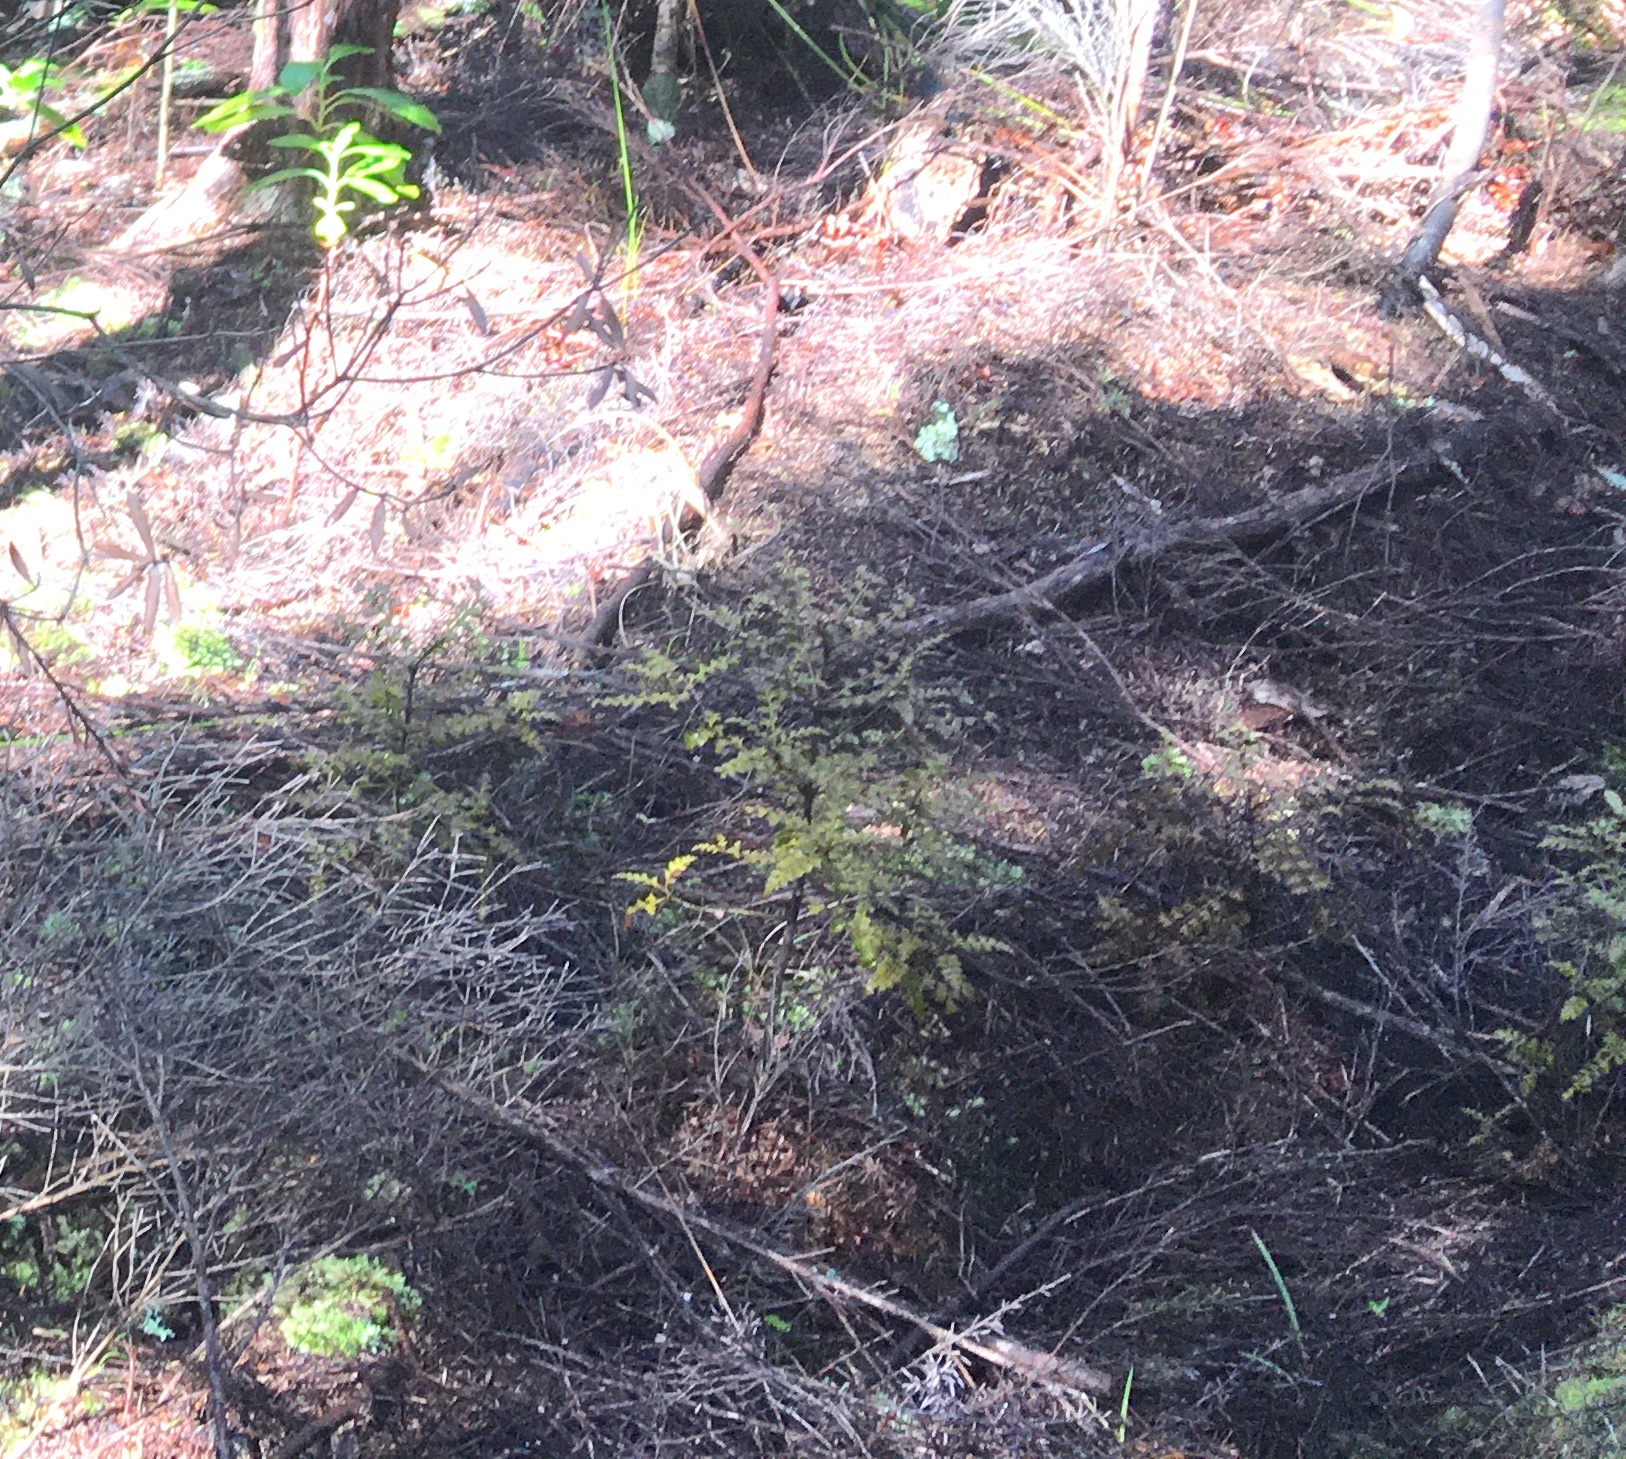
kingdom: Plantae
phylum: Tracheophyta
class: Pinopsida
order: Pinales
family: Phyllocladaceae
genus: Phyllocladus
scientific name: Phyllocladus trichomanoides
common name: Celery pine
